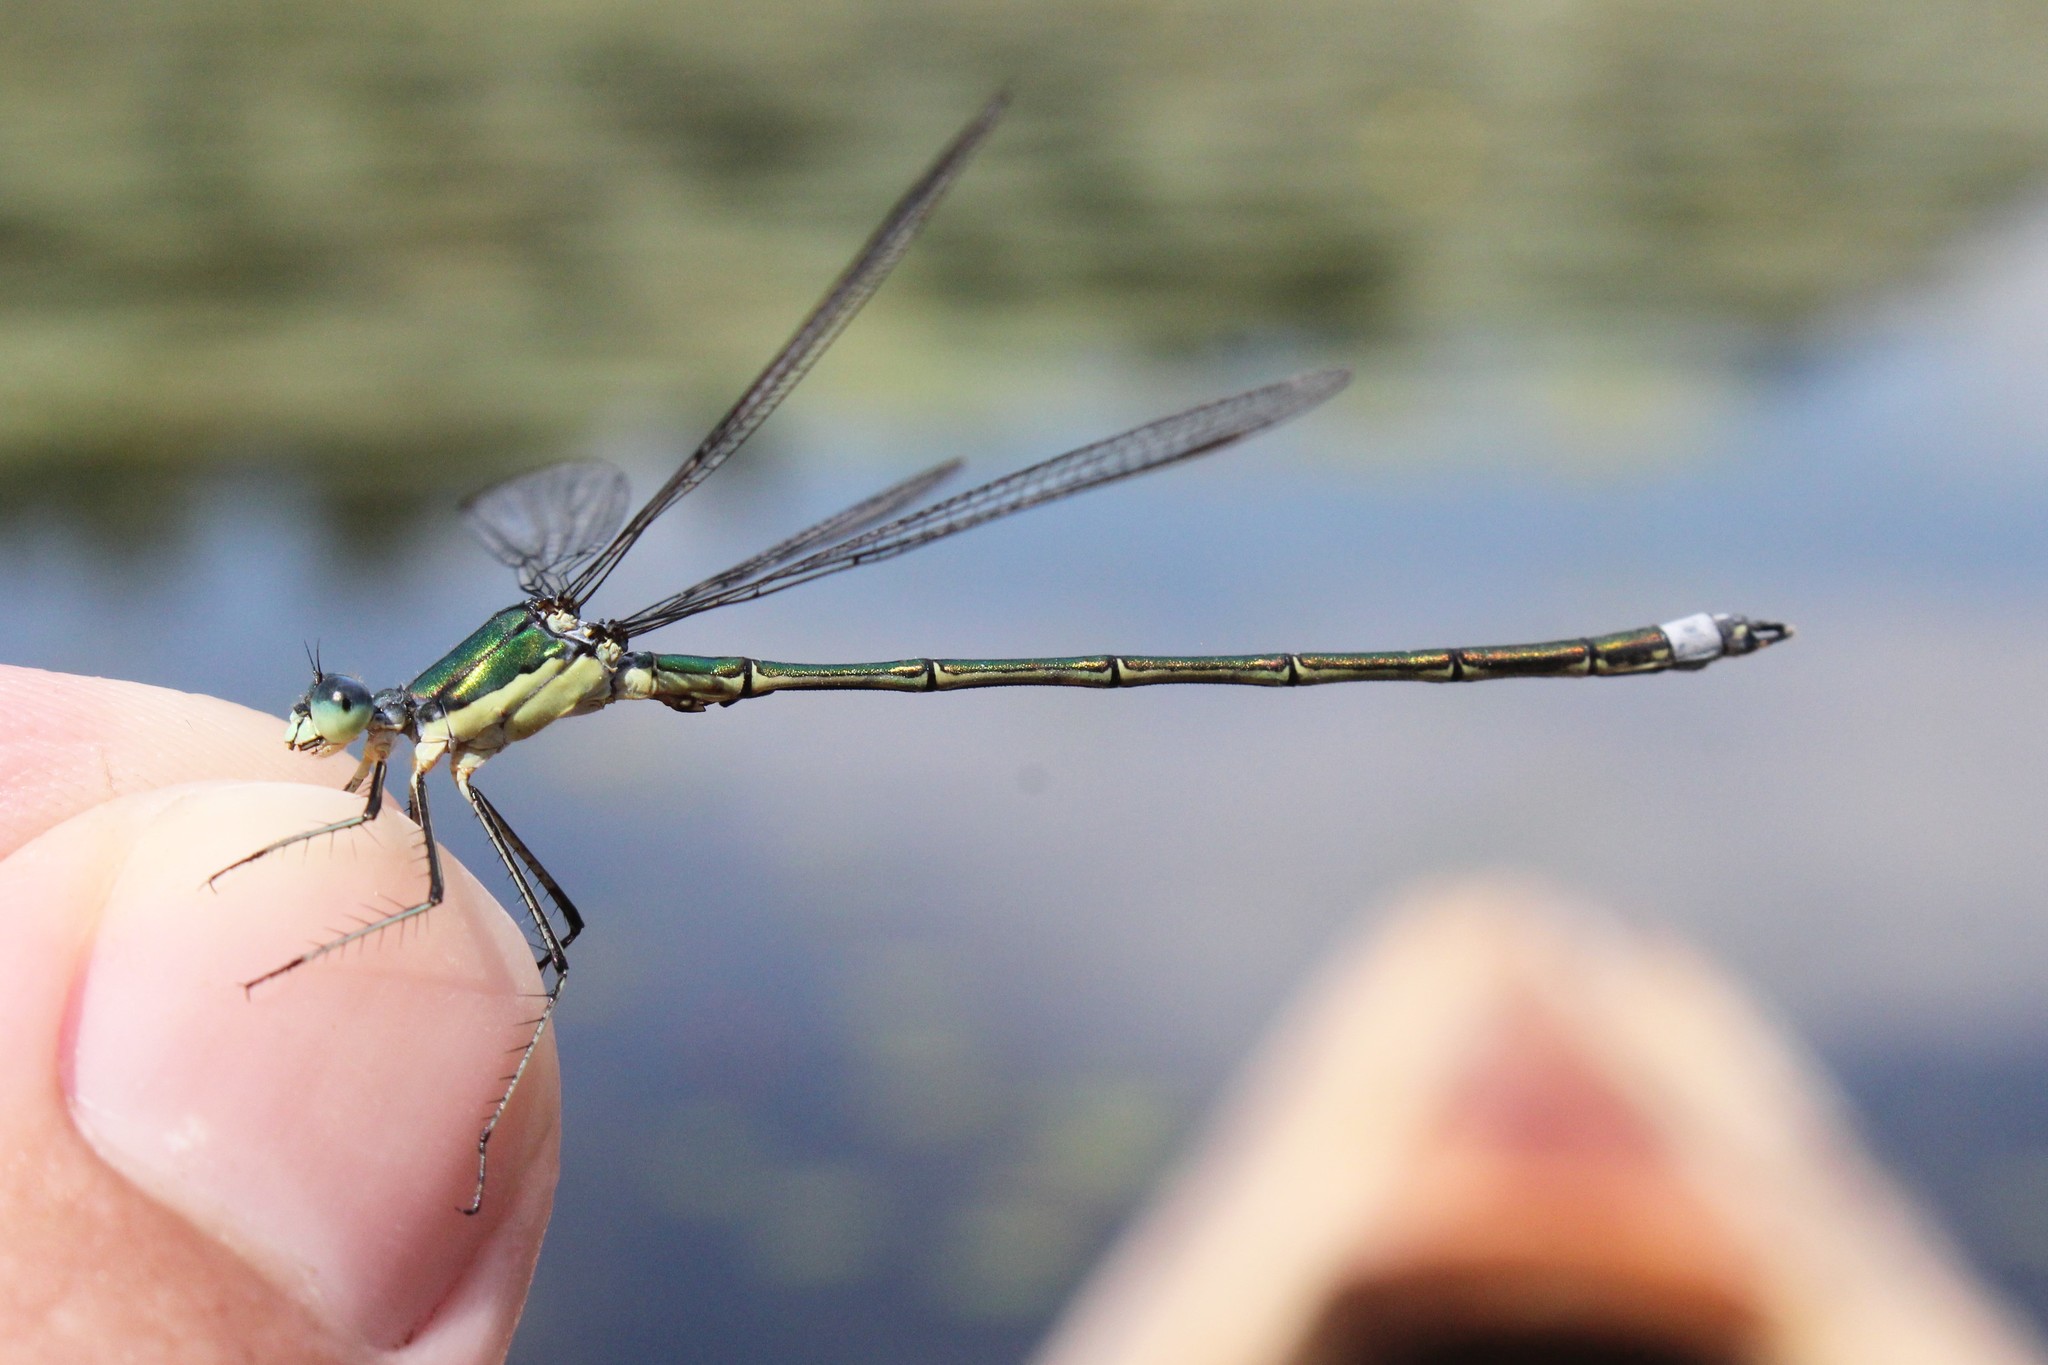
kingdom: Animalia
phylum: Arthropoda
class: Insecta
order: Odonata
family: Lestidae
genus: Lestes
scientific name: Lestes inaequalis
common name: Elegant spreadwing
